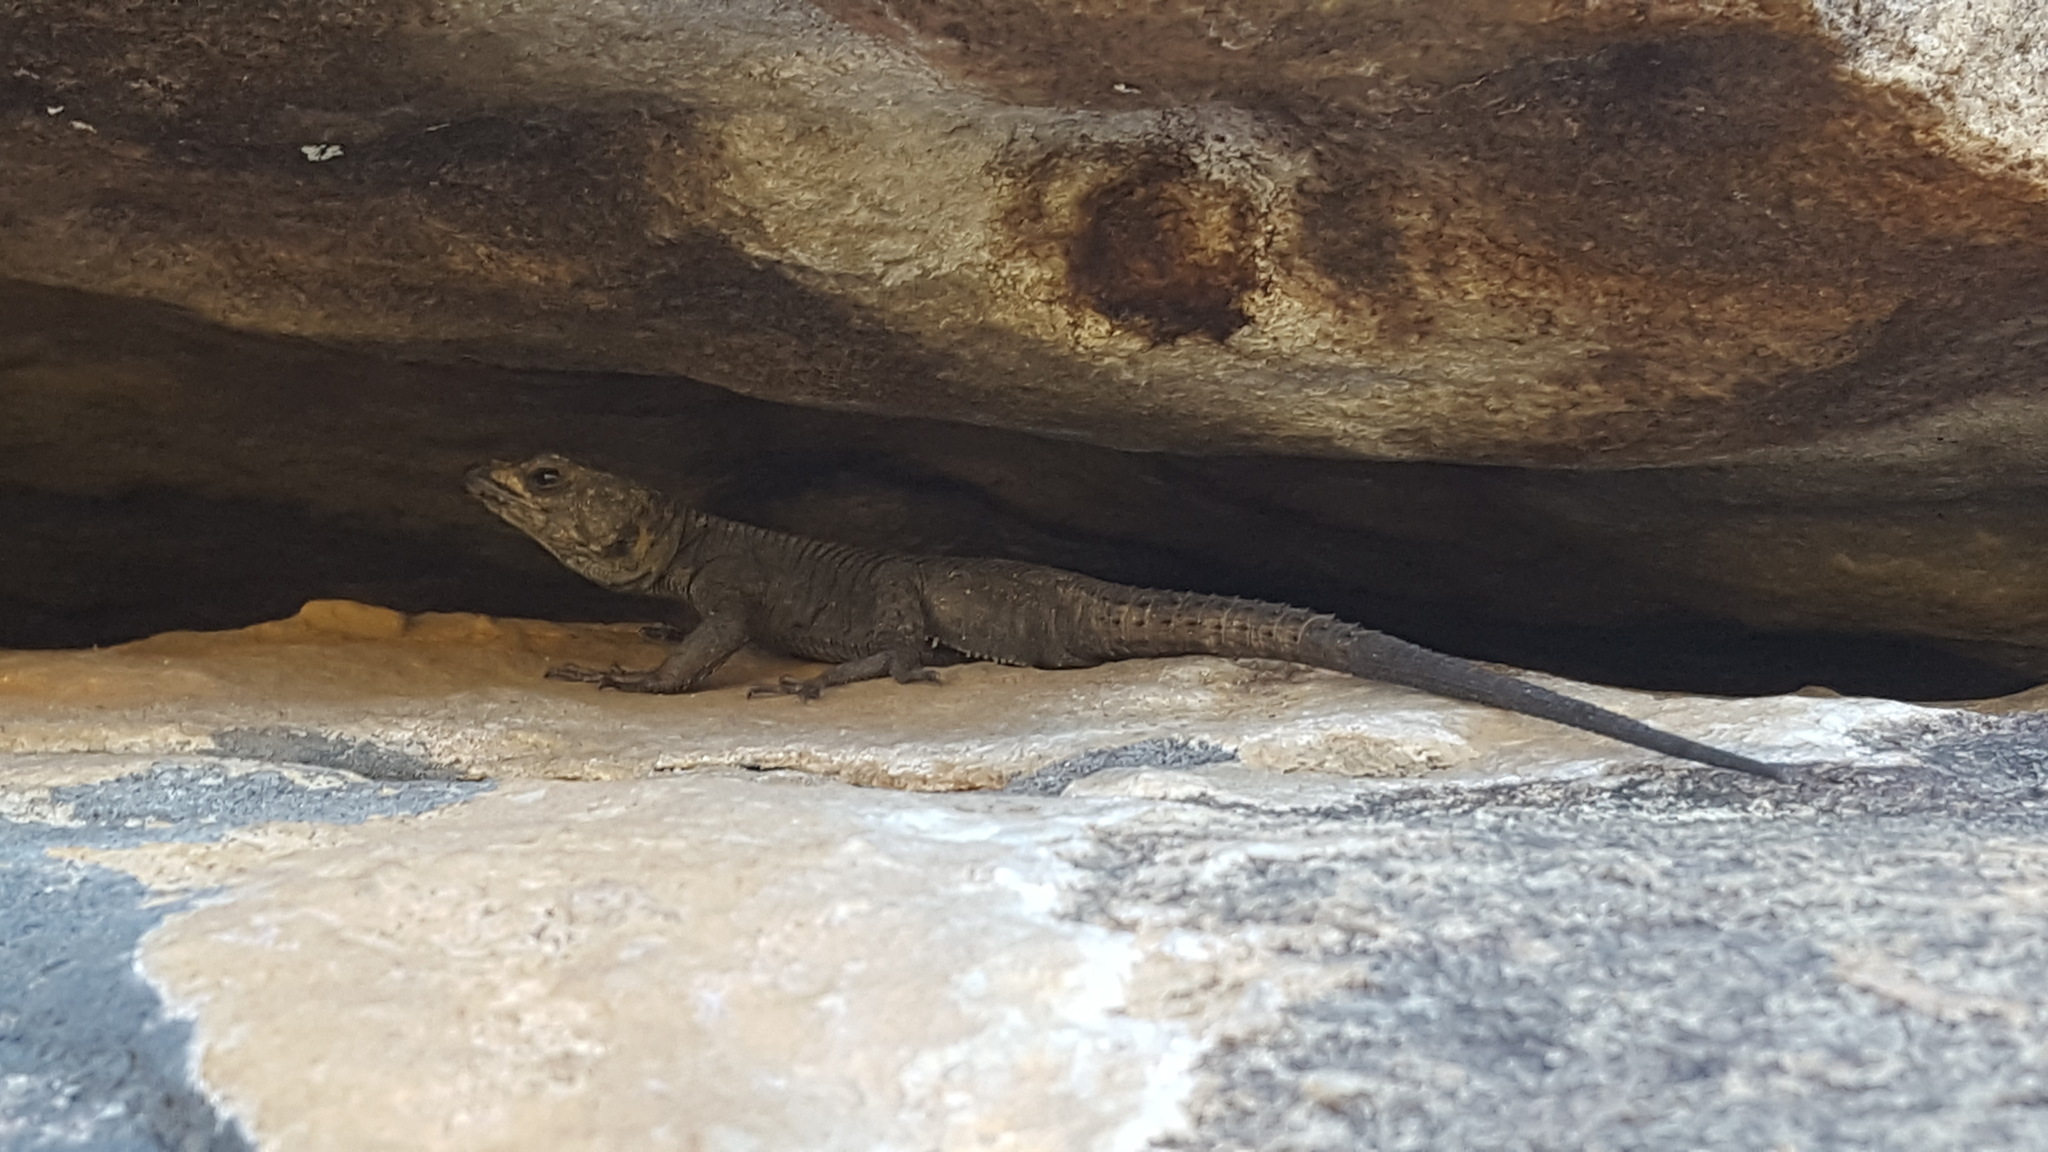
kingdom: Animalia
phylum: Chordata
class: Squamata
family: Cordylidae
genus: Hemicordylus
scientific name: Hemicordylus capensis
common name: Graceful crag lizard
